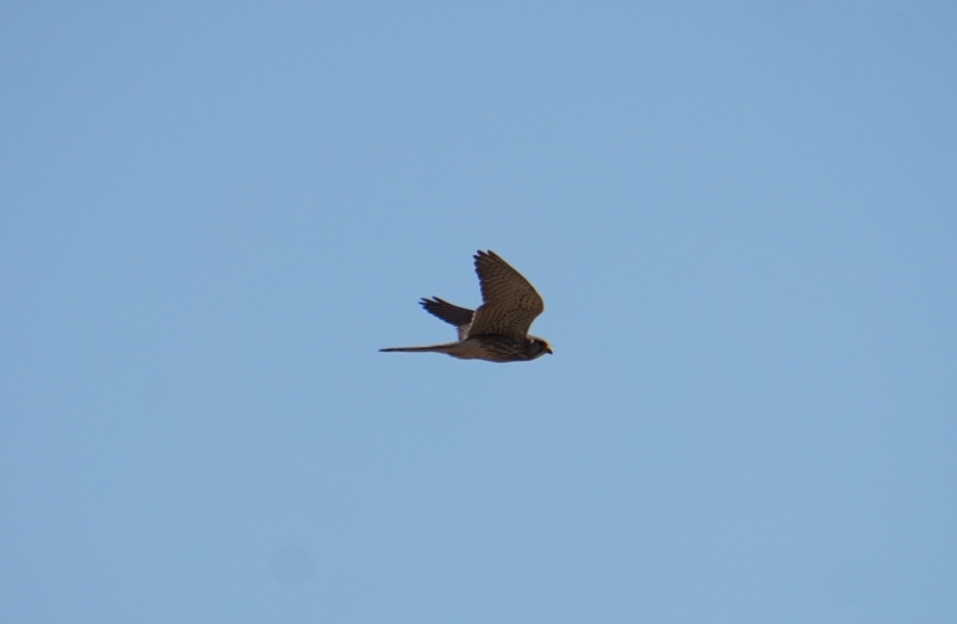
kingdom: Animalia
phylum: Chordata
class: Aves
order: Falconiformes
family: Falconidae
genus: Falco
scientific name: Falco tinnunculus
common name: Common kestrel
